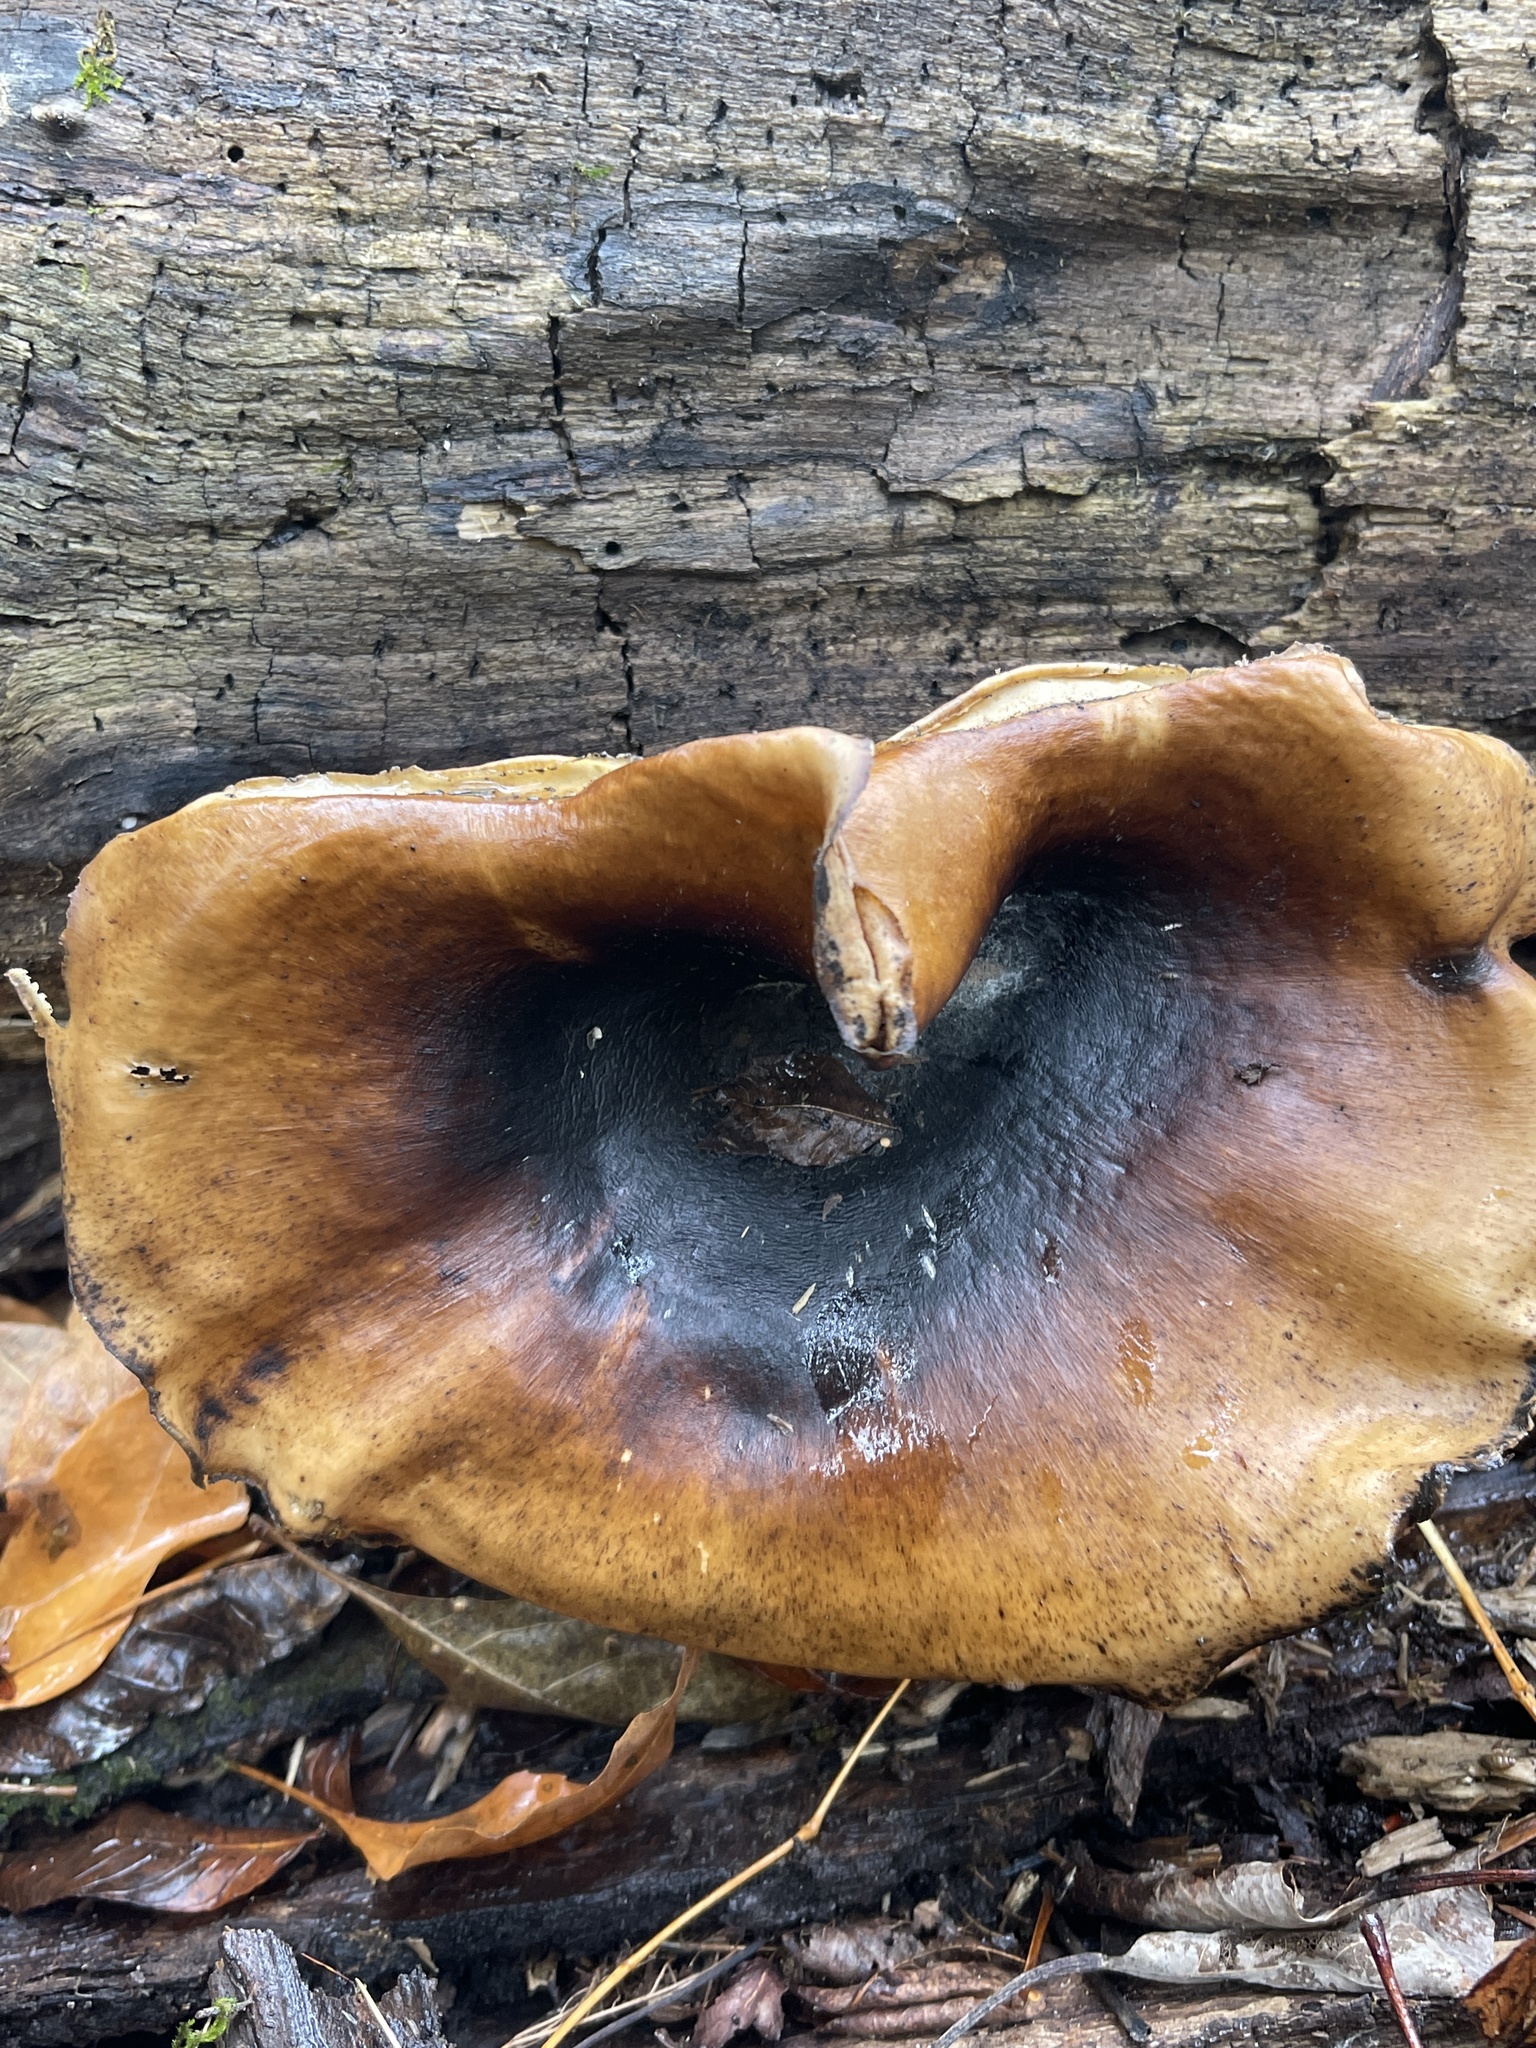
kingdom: Fungi
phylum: Basidiomycota
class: Agaricomycetes
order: Polyporales
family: Polyporaceae
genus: Picipes
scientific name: Picipes badius
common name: Bay polypore
